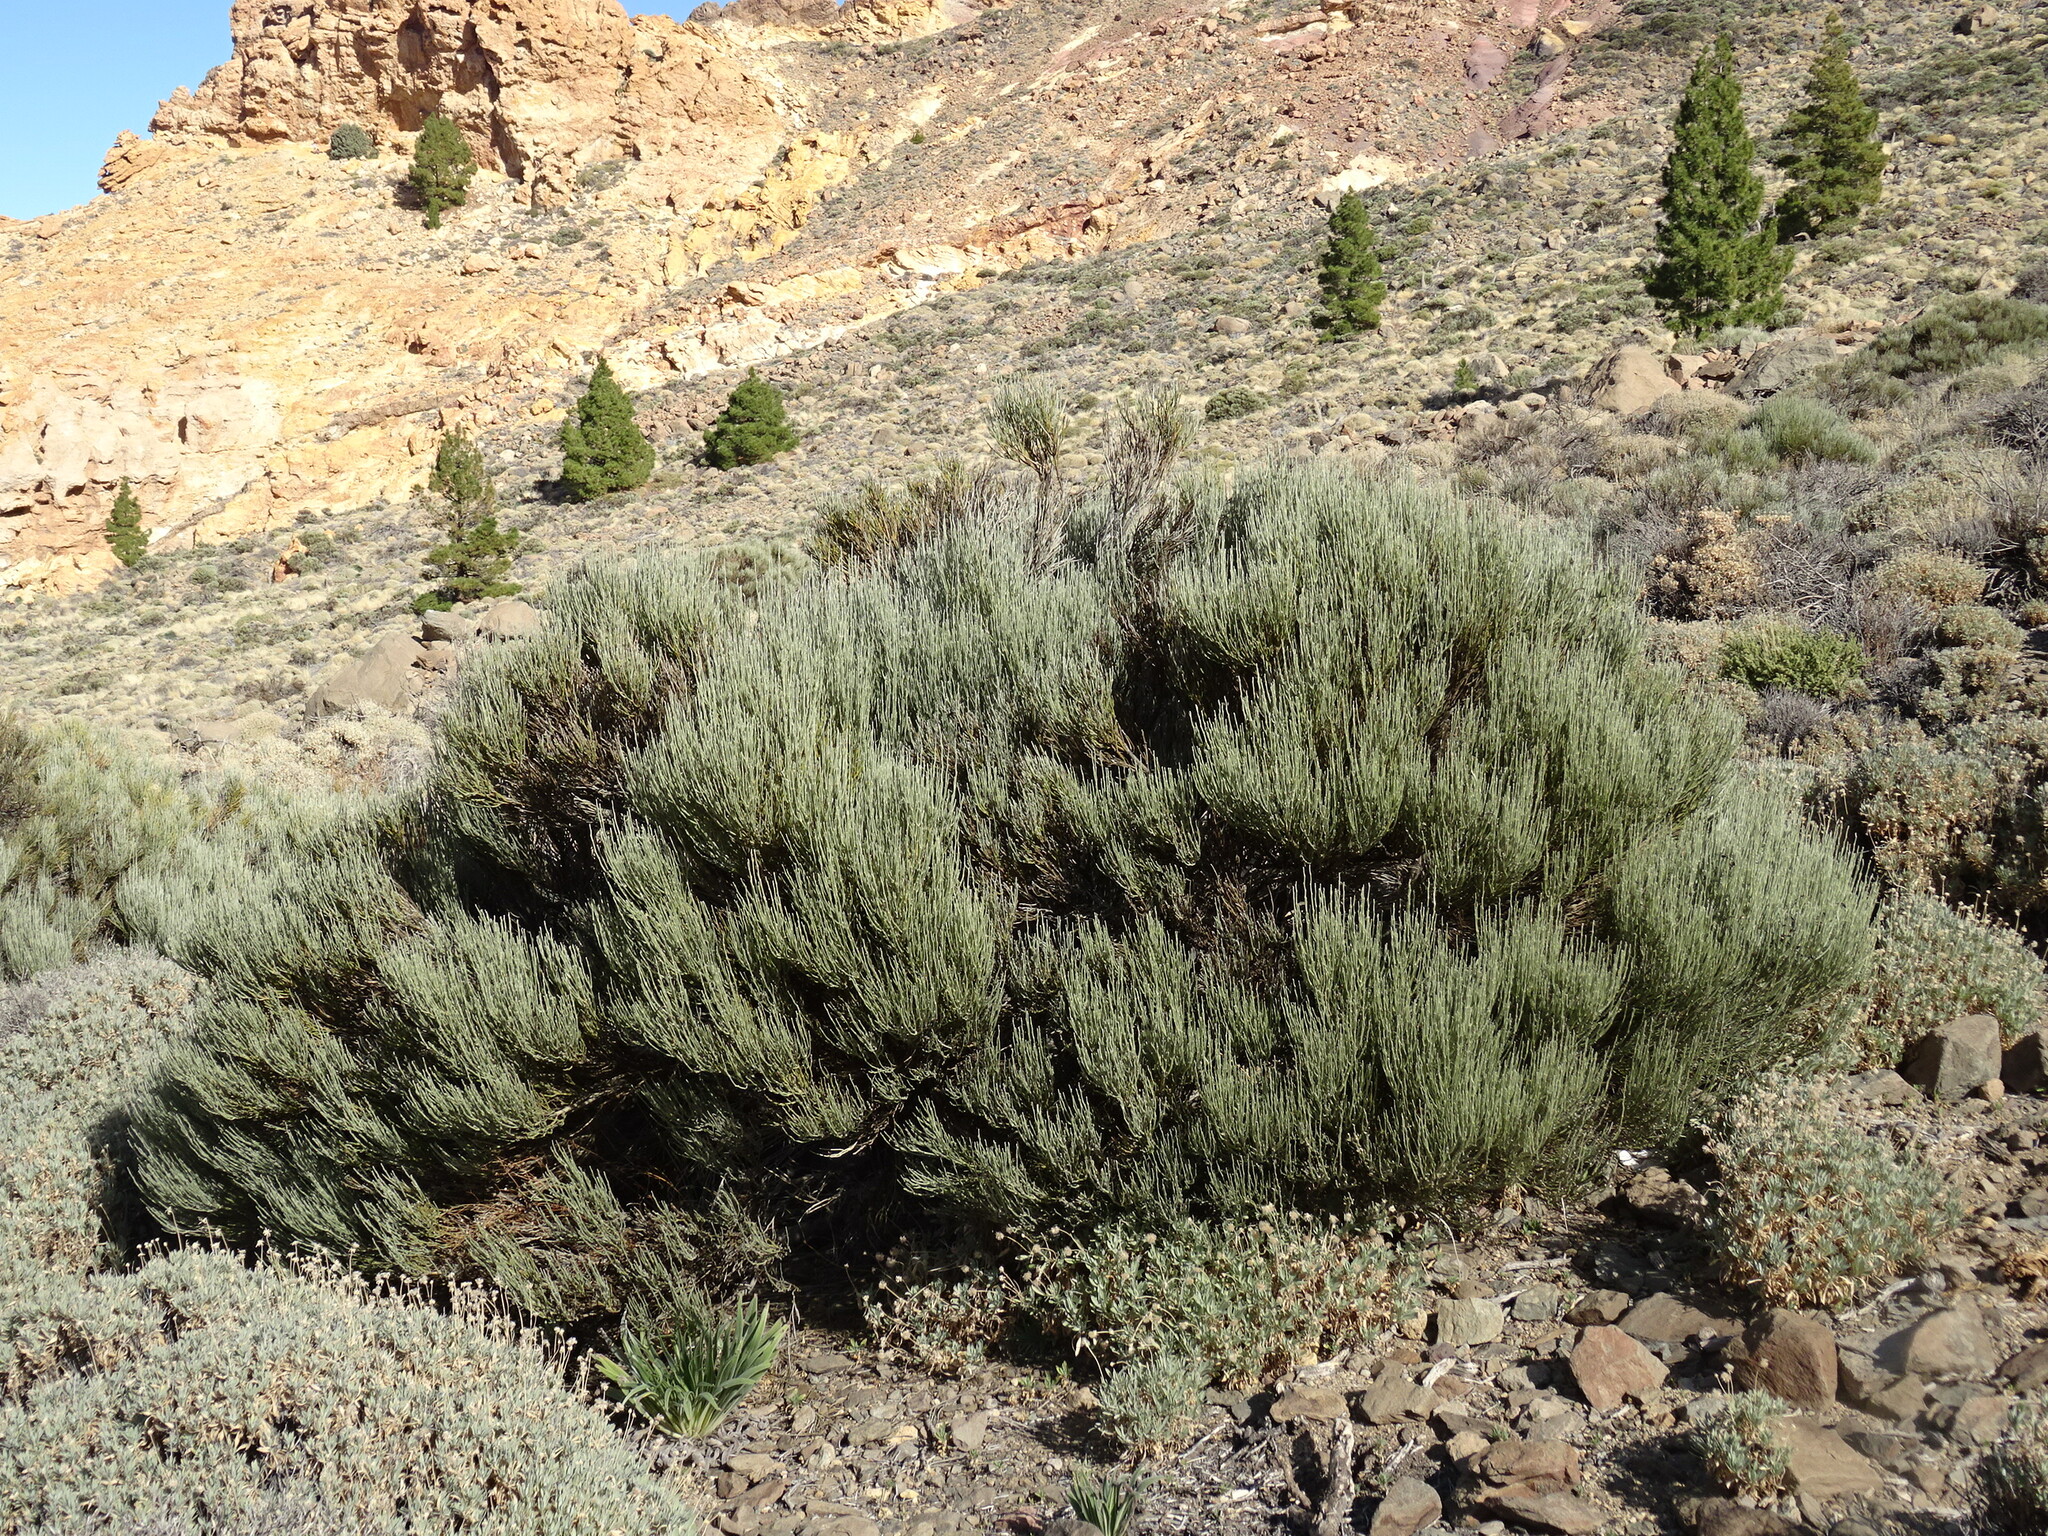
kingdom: Plantae
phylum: Tracheophyta
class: Magnoliopsida
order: Fabales
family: Fabaceae
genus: Cytisus
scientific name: Cytisus supranubius
